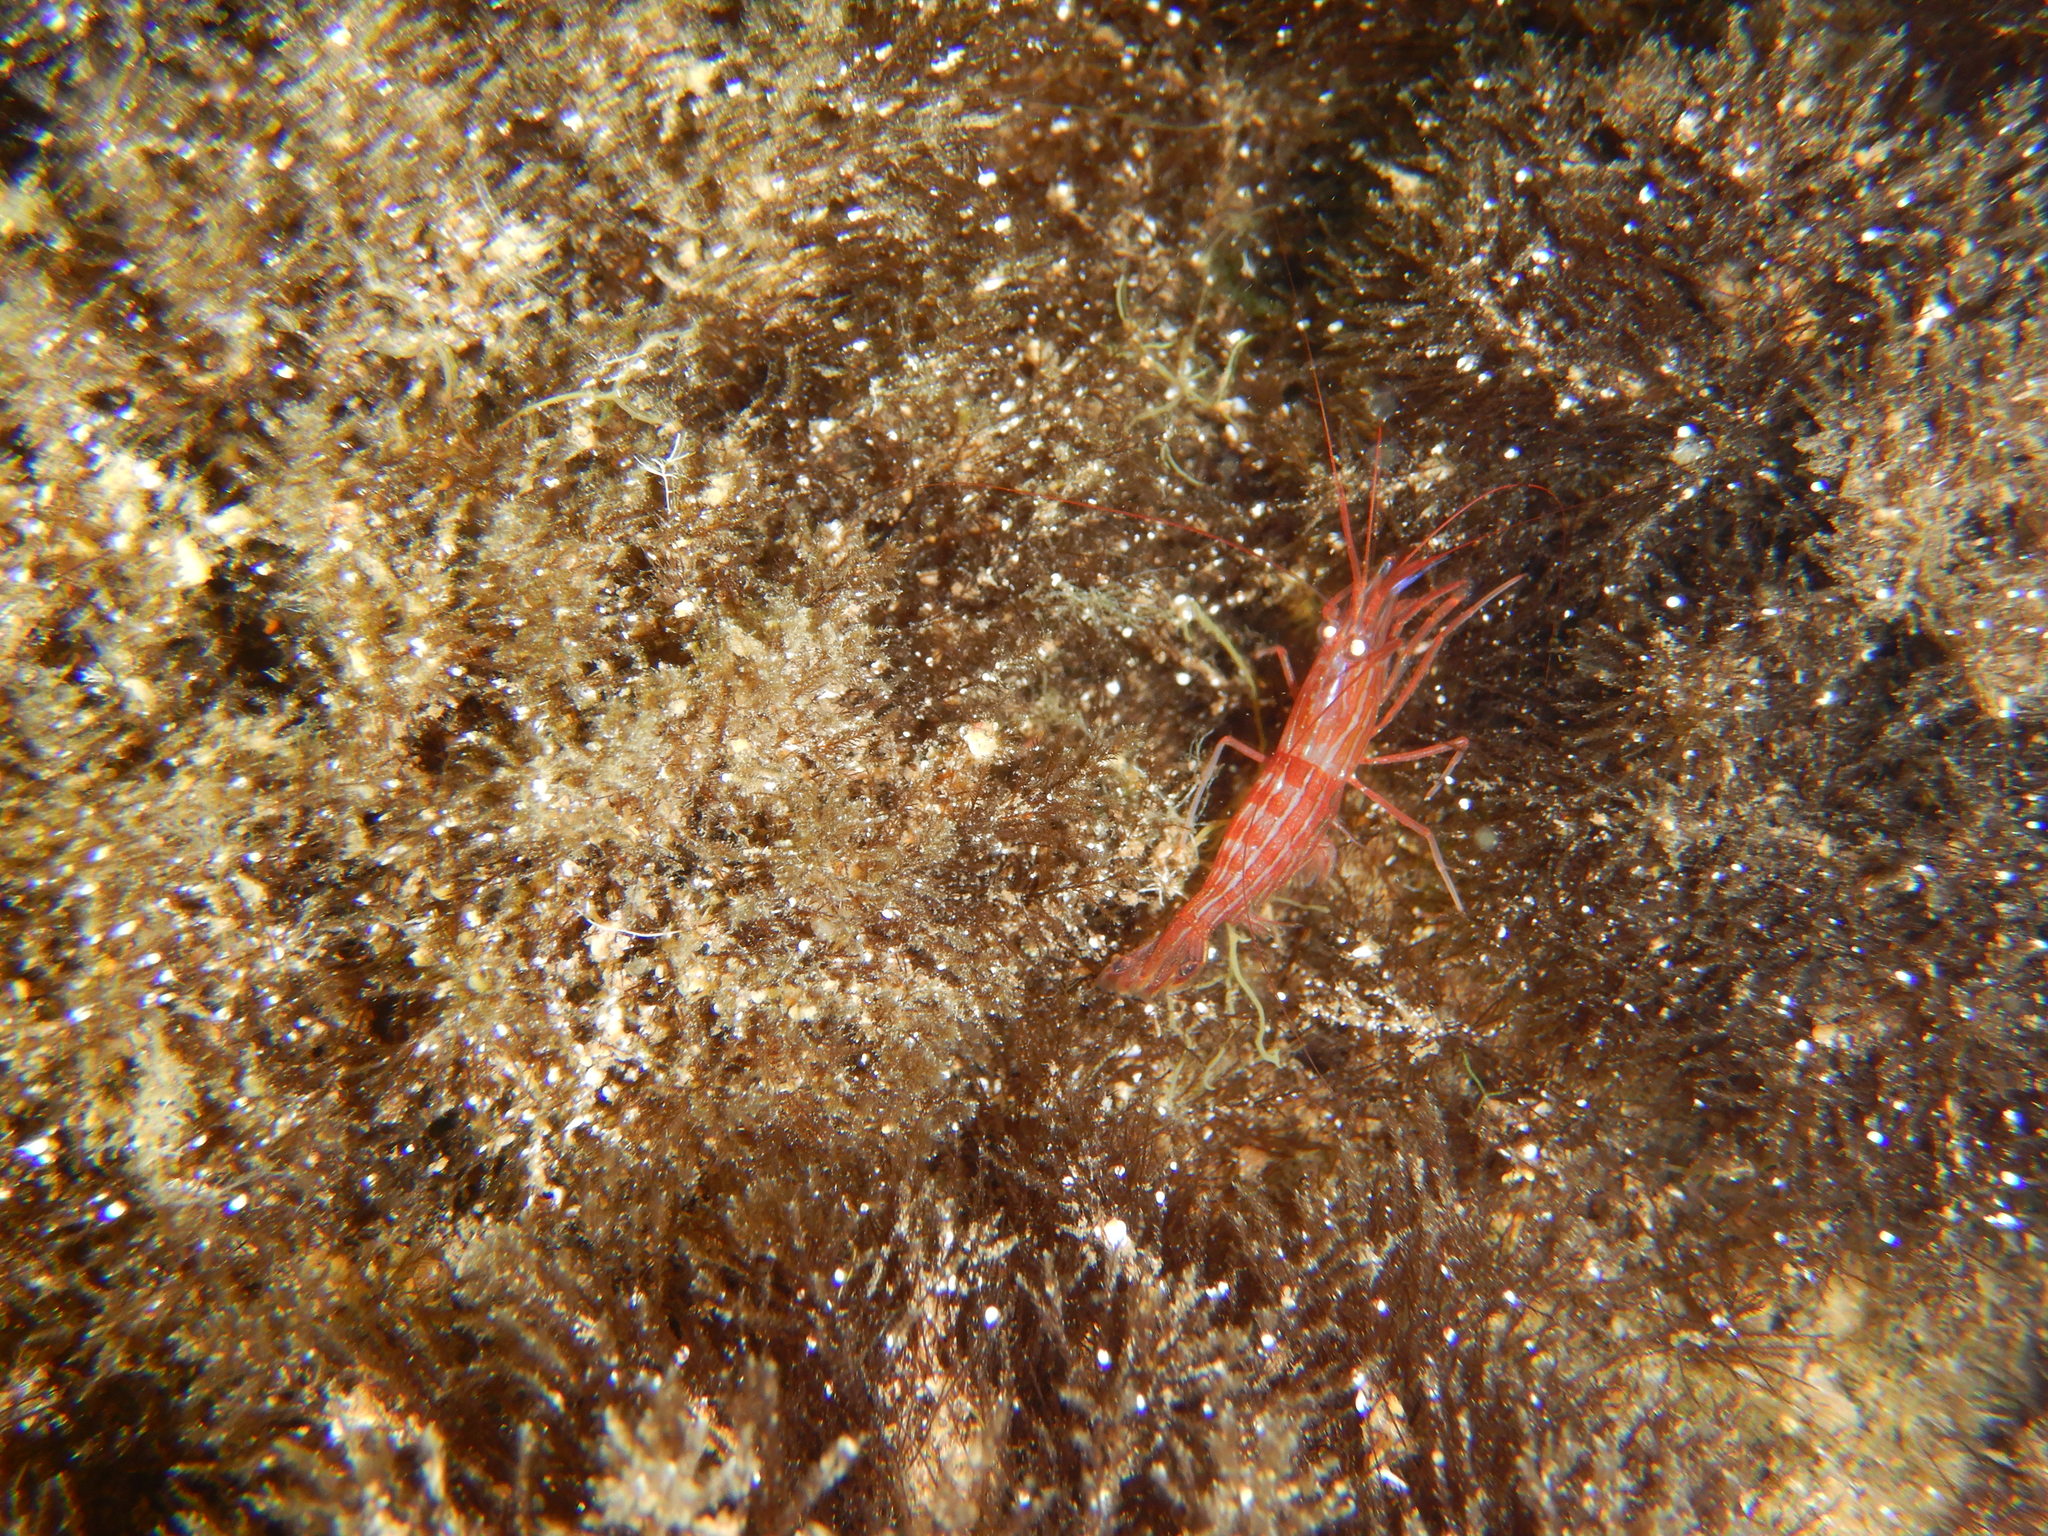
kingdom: Animalia
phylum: Arthropoda
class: Malacostraca
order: Decapoda
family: Lysmatidae
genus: Lysmata
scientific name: Lysmata seticaudata
